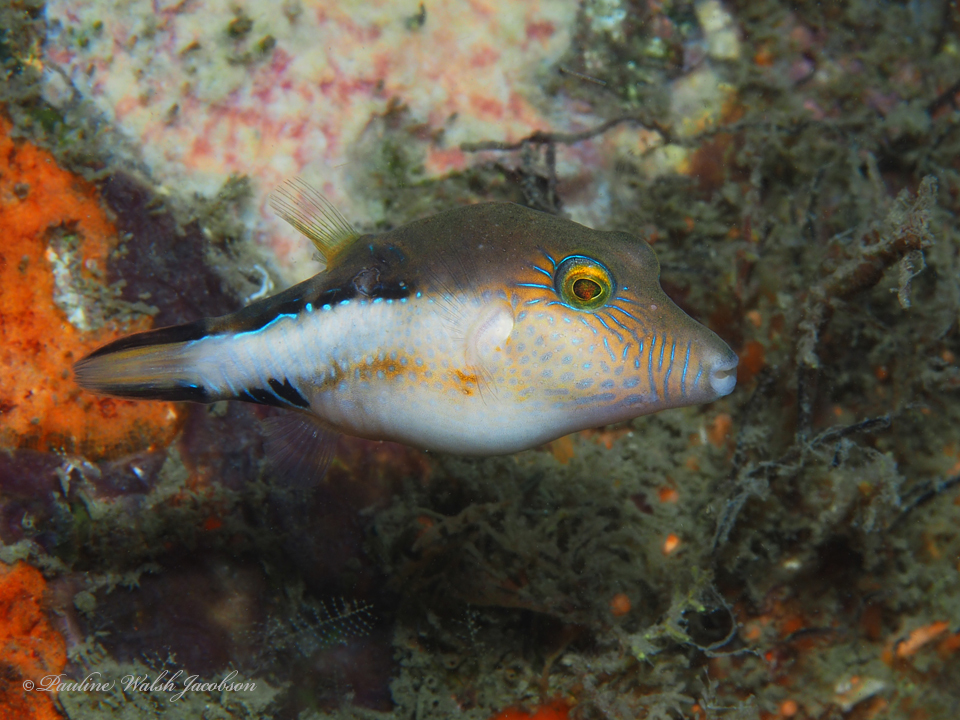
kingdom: Animalia
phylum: Chordata
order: Tetraodontiformes
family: Tetraodontidae
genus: Canthigaster
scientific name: Canthigaster rostrata
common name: Caribbean sharpnose-puffer
